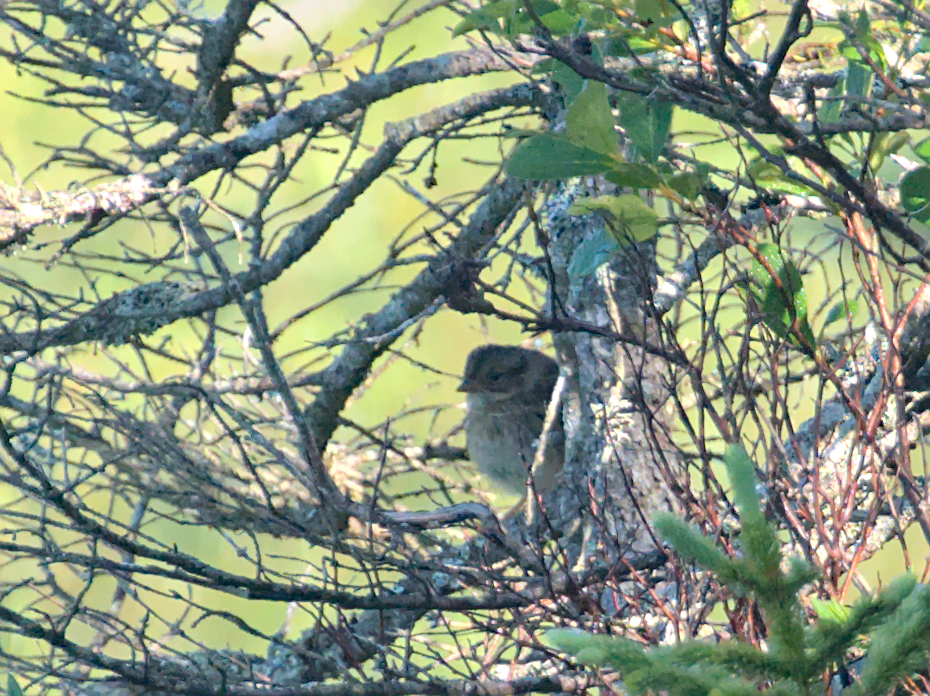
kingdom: Animalia
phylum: Chordata
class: Aves
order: Passeriformes
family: Passerellidae
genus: Melospiza
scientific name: Melospiza lincolnii
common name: Lincoln's sparrow
